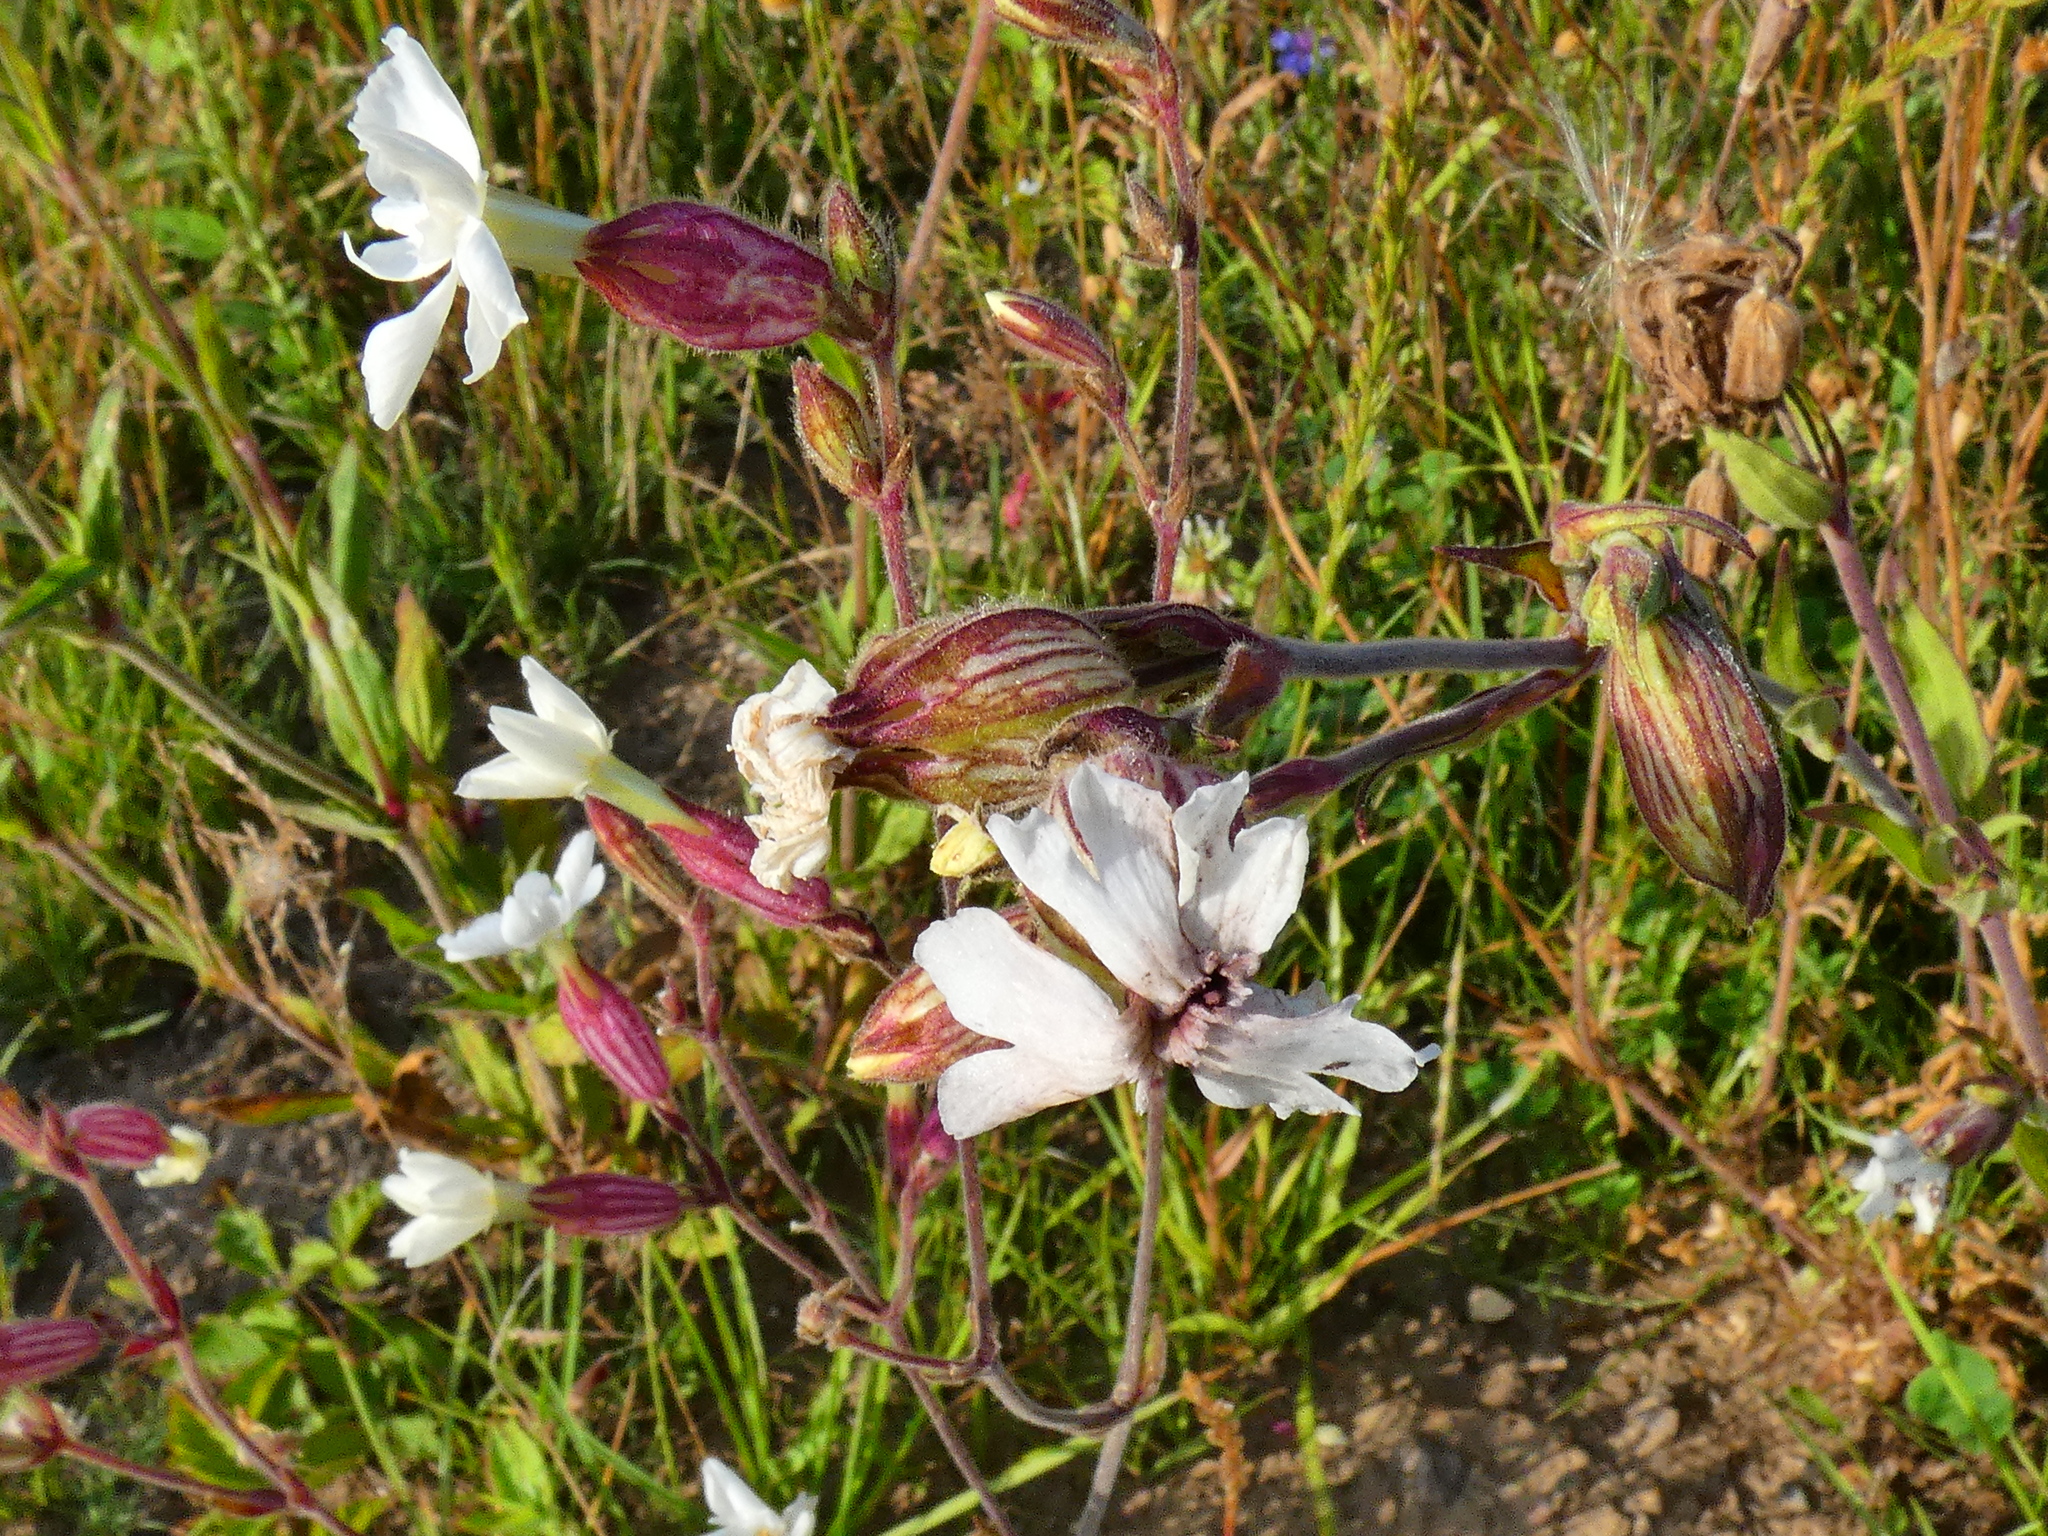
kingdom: Plantae
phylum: Tracheophyta
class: Magnoliopsida
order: Caryophyllales
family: Caryophyllaceae
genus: Silene
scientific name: Silene latifolia
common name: White campion
